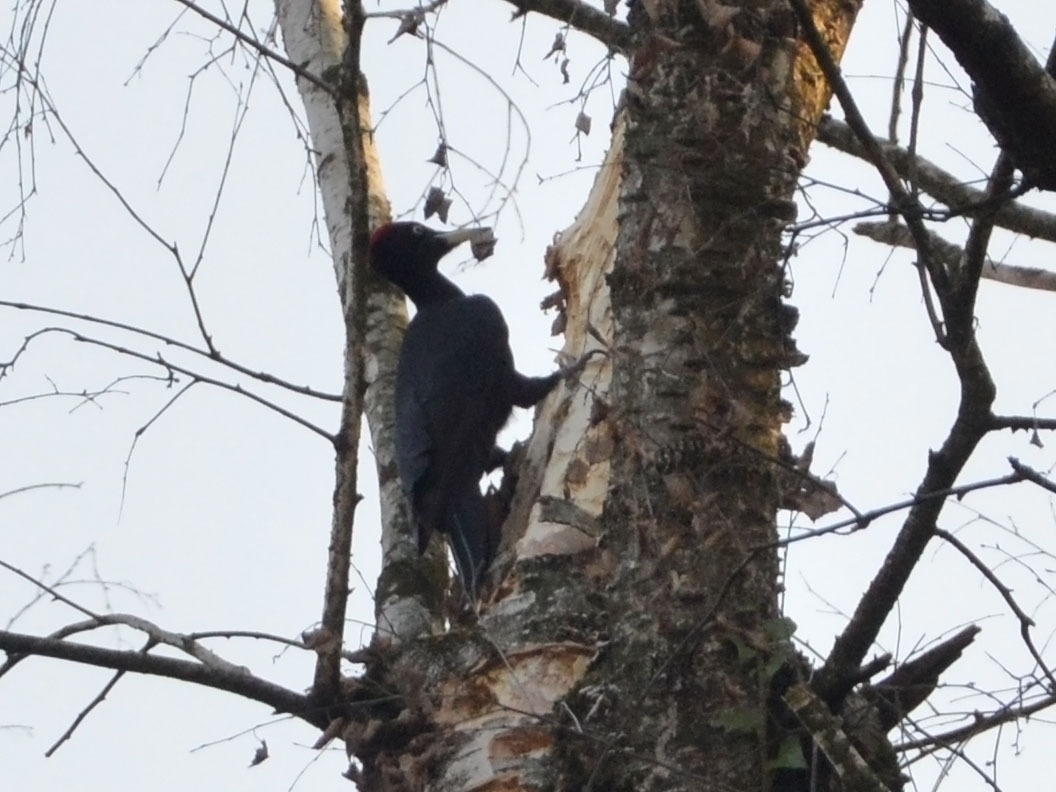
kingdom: Animalia
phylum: Chordata
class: Aves
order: Piciformes
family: Picidae
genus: Dryocopus
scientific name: Dryocopus martius
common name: Black woodpecker
